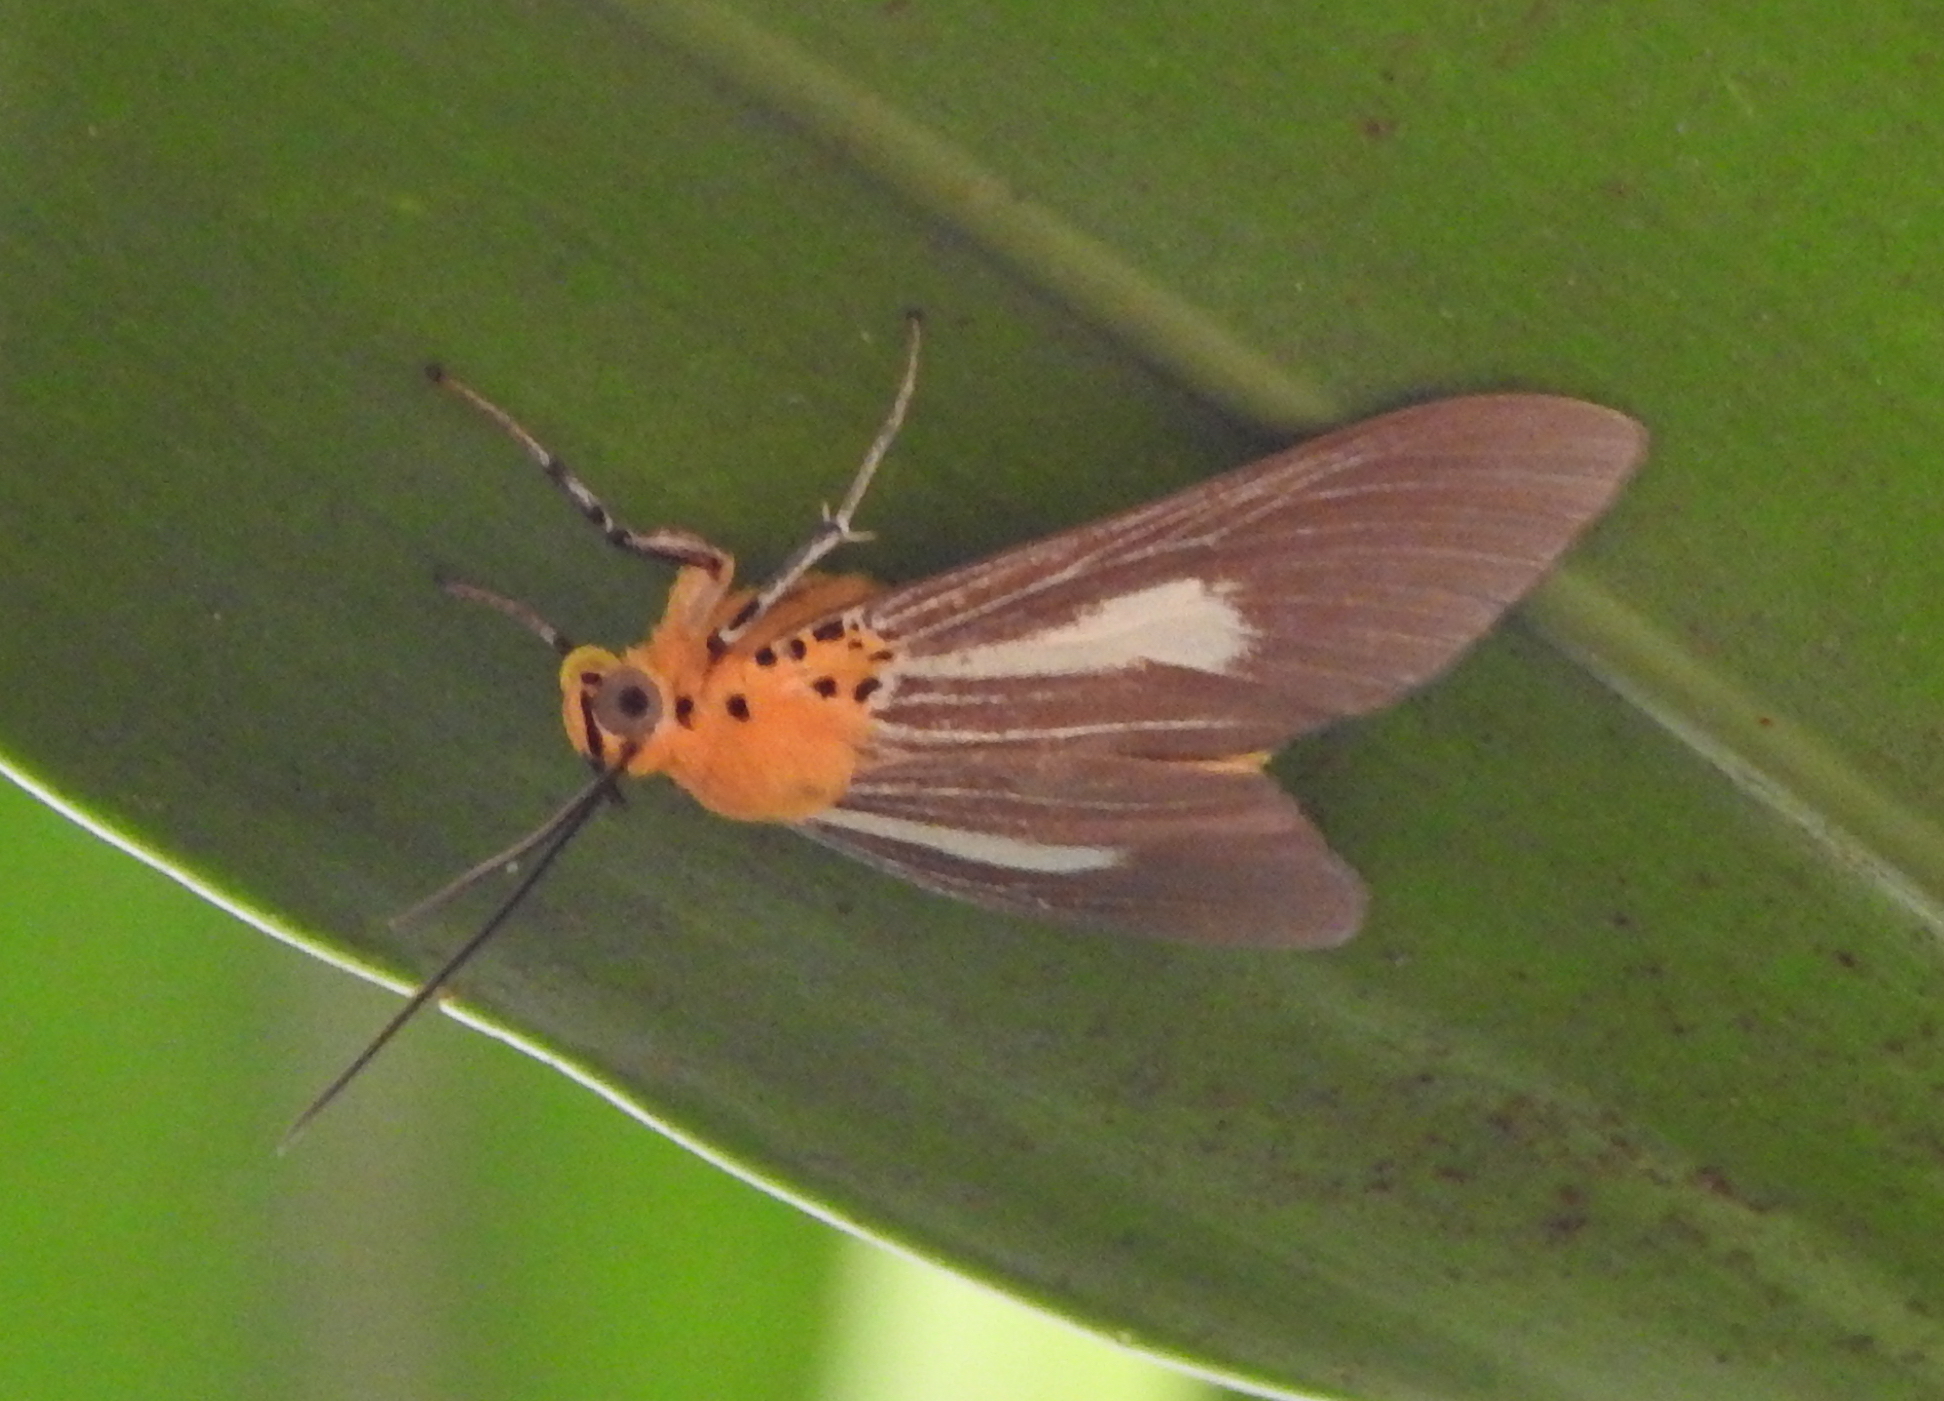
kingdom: Animalia
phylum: Arthropoda
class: Insecta
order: Lepidoptera
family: Erebidae
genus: Asota
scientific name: Asota subsimilis
